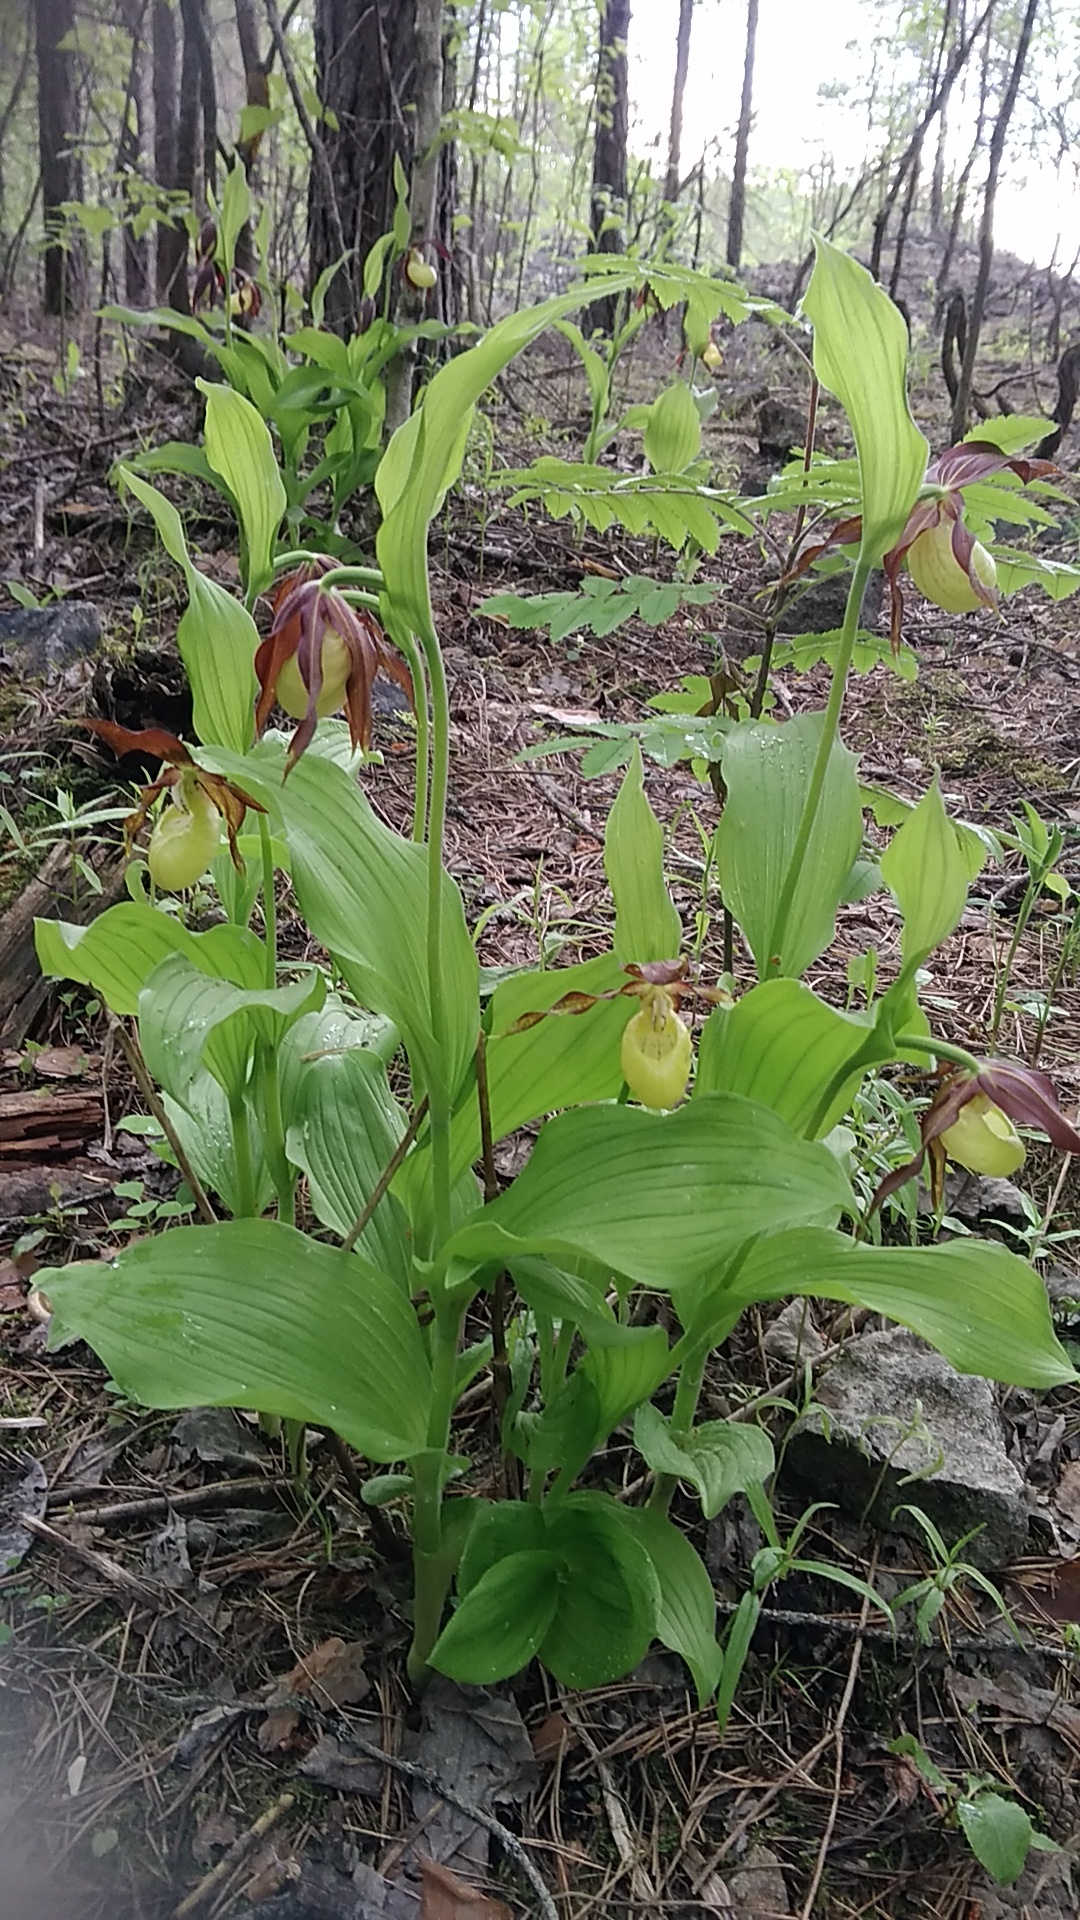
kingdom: Plantae
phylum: Tracheophyta
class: Liliopsida
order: Asparagales
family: Orchidaceae
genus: Cypripedium
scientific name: Cypripedium calceolus
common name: Lady's-slipper
